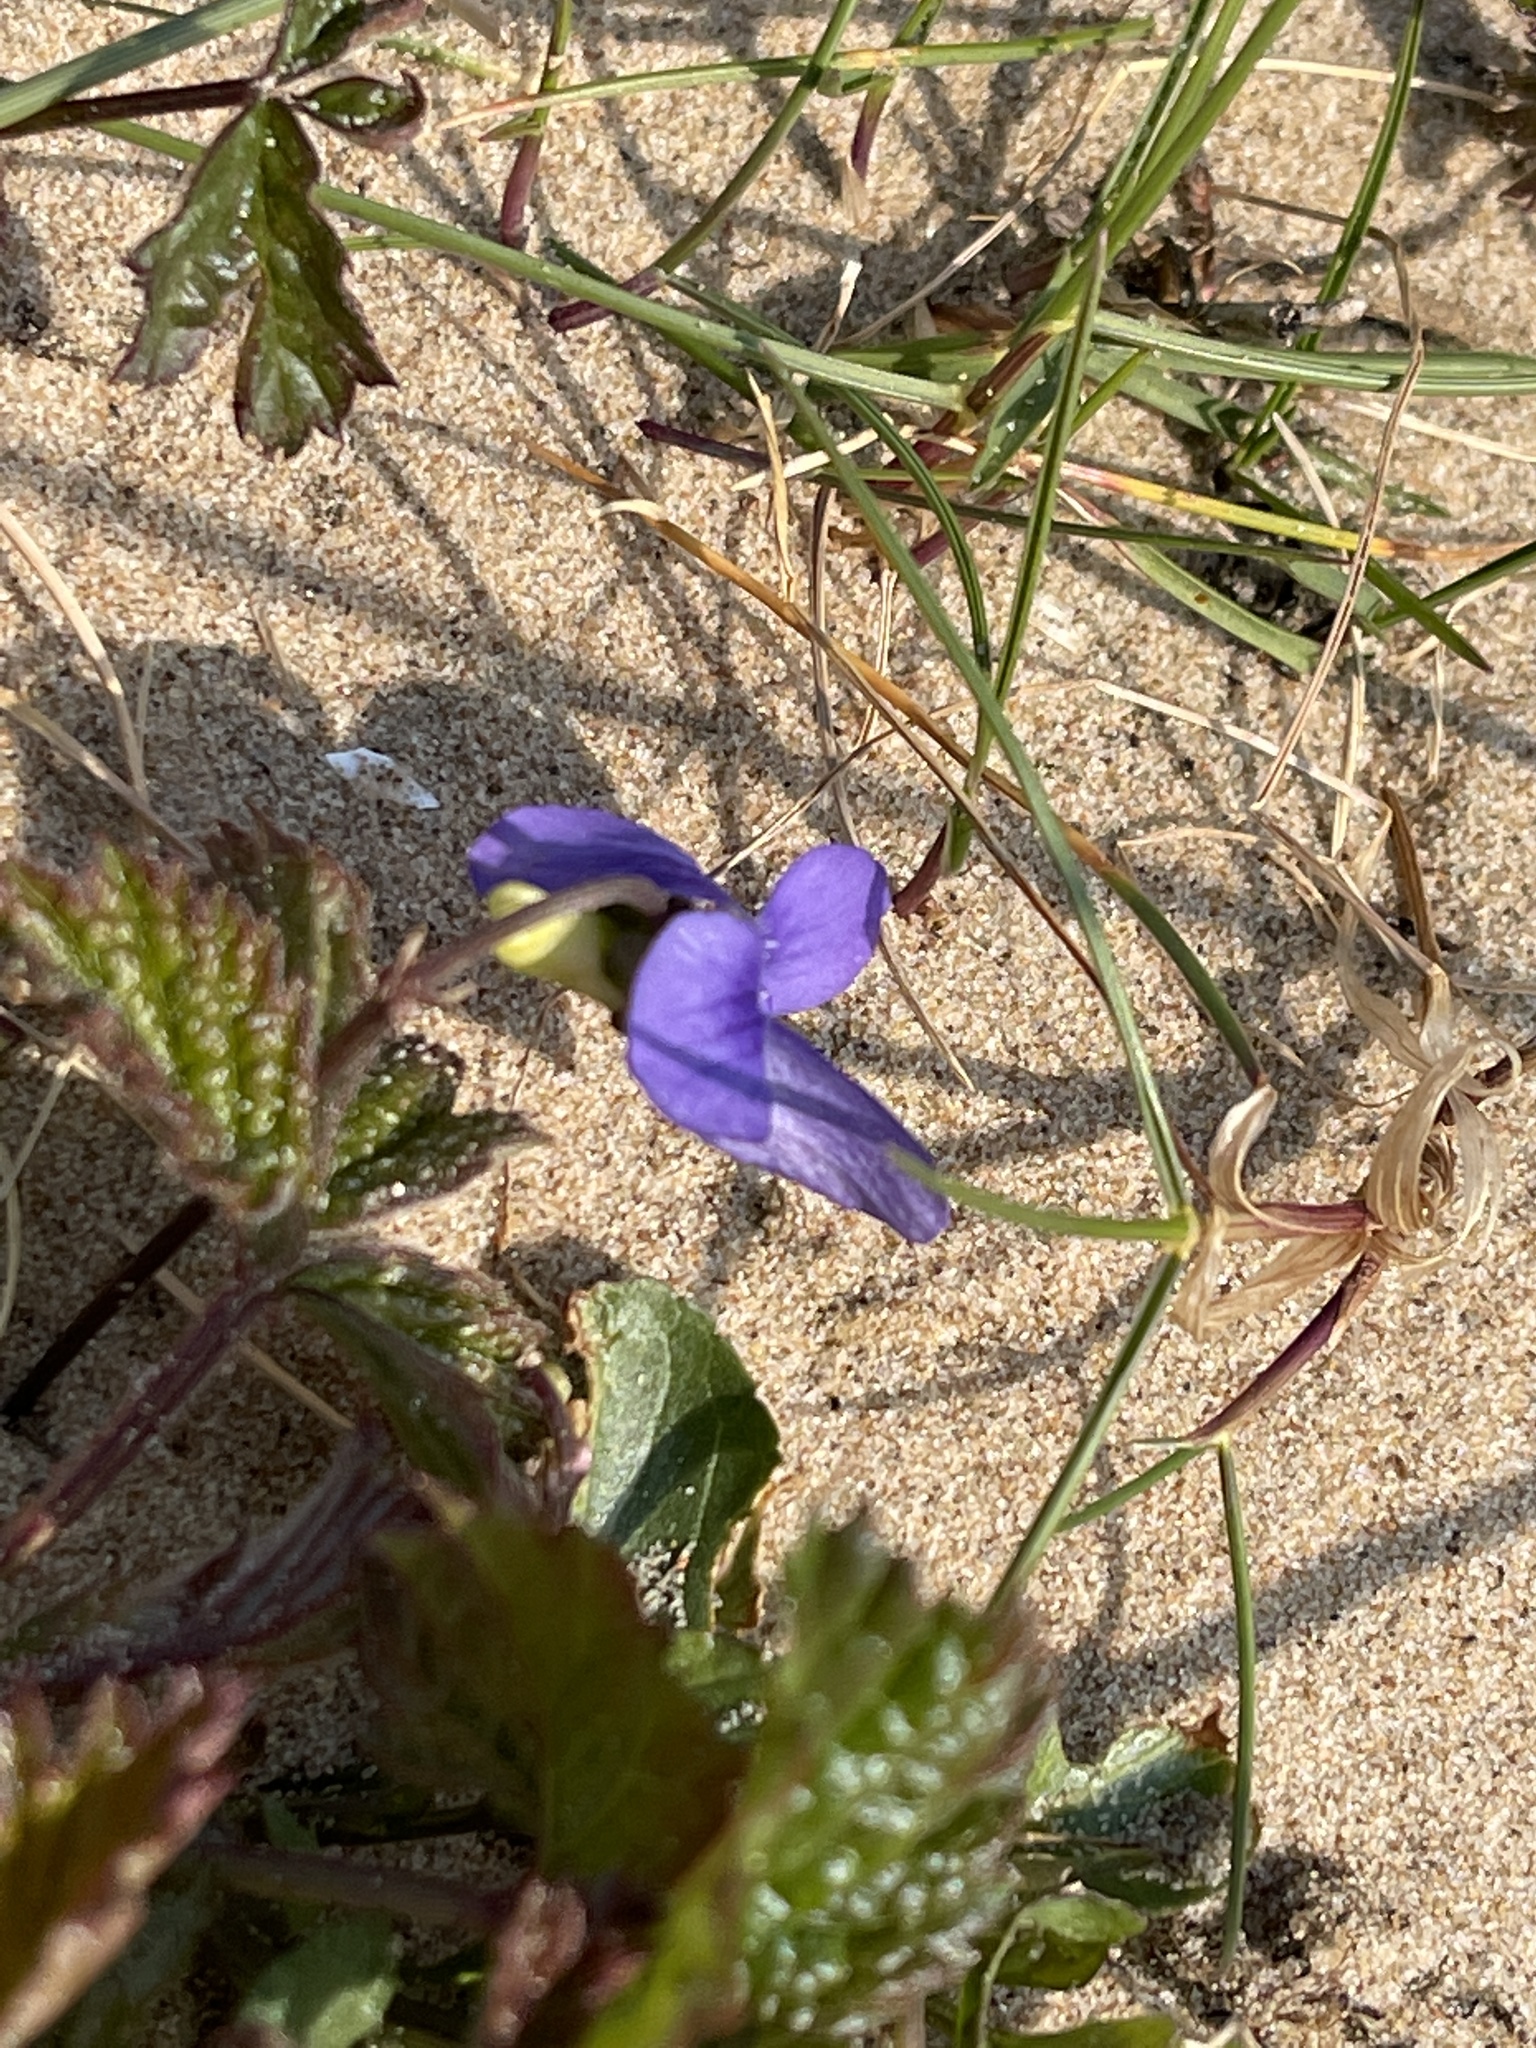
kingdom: Plantae
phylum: Tracheophyta
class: Magnoliopsida
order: Malpighiales
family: Violaceae
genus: Viola
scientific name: Viola canina
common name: Heath dog-violet
